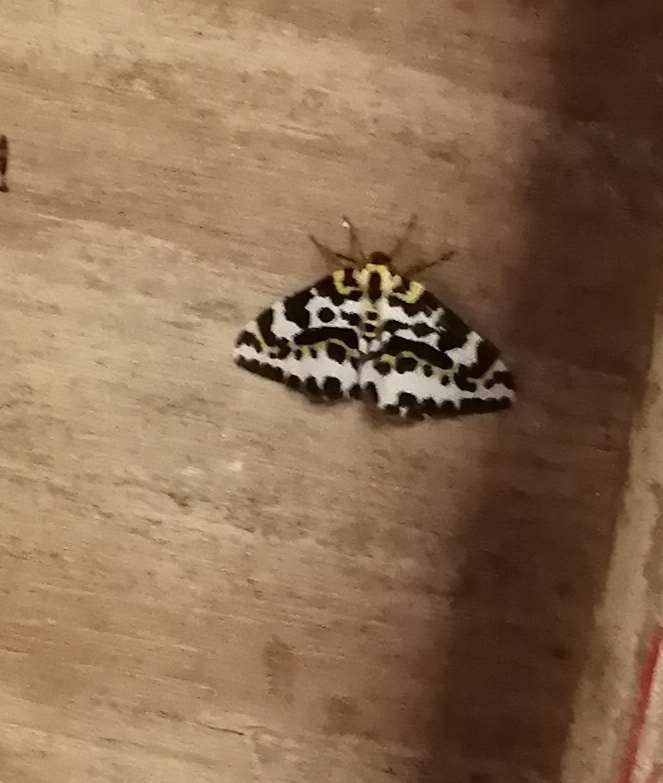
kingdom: Animalia
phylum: Arthropoda
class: Insecta
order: Lepidoptera
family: Geometridae
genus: Abraxas
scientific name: Abraxas grossulariata
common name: Magpie
